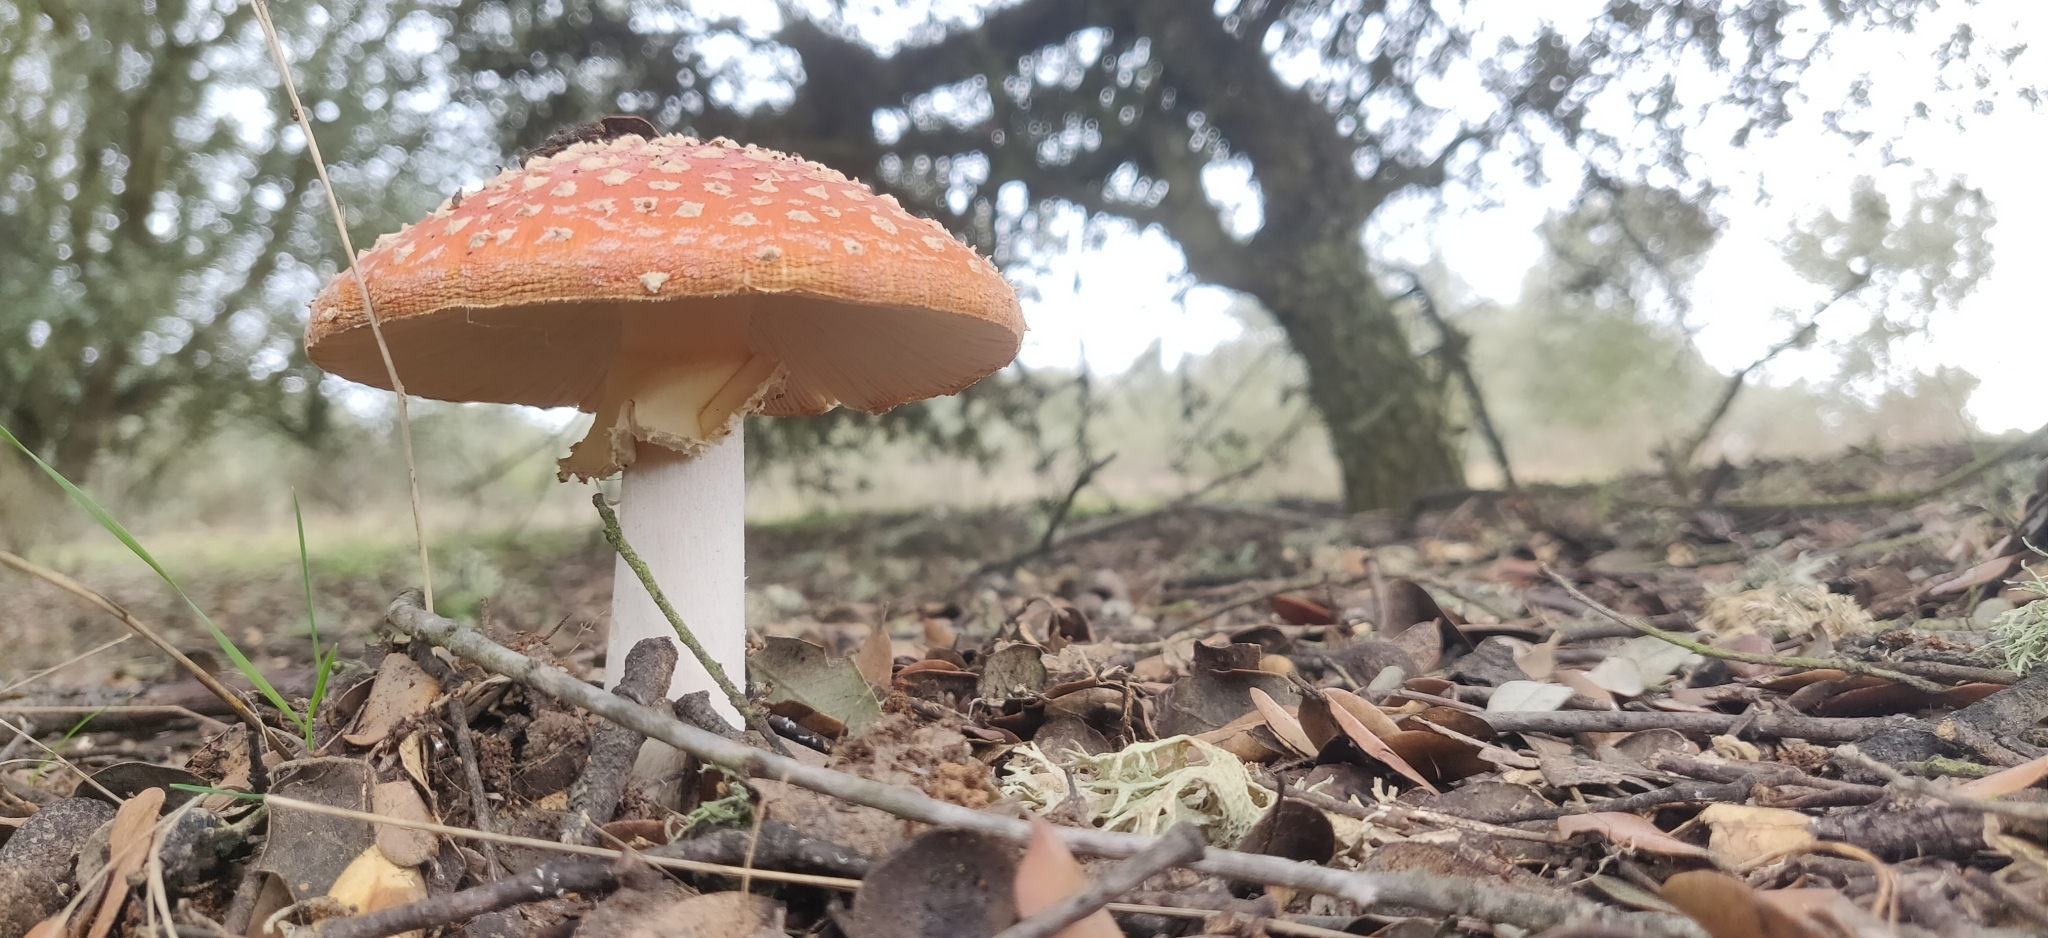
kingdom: Fungi
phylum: Basidiomycota
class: Agaricomycetes
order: Agaricales
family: Amanitaceae
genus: Amanita
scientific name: Amanita muscaria
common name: Fly agaric
